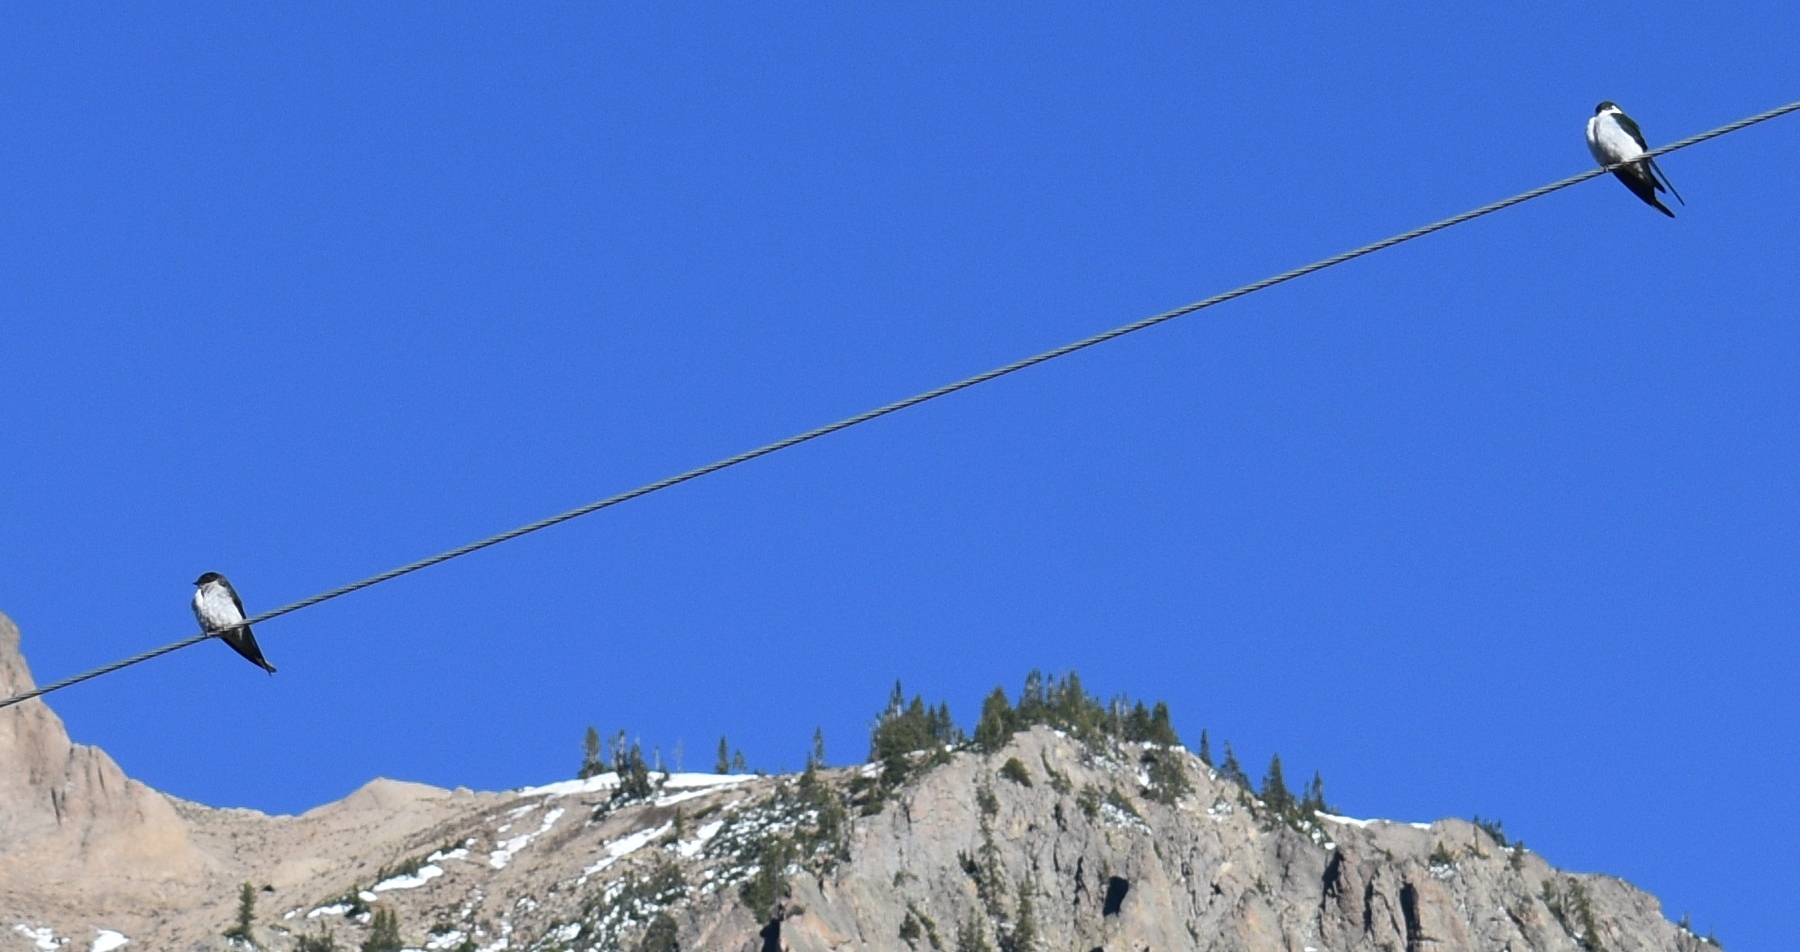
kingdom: Animalia
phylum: Chordata
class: Aves
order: Passeriformes
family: Hirundinidae
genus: Tachycineta
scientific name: Tachycineta bicolor
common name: Tree swallow
